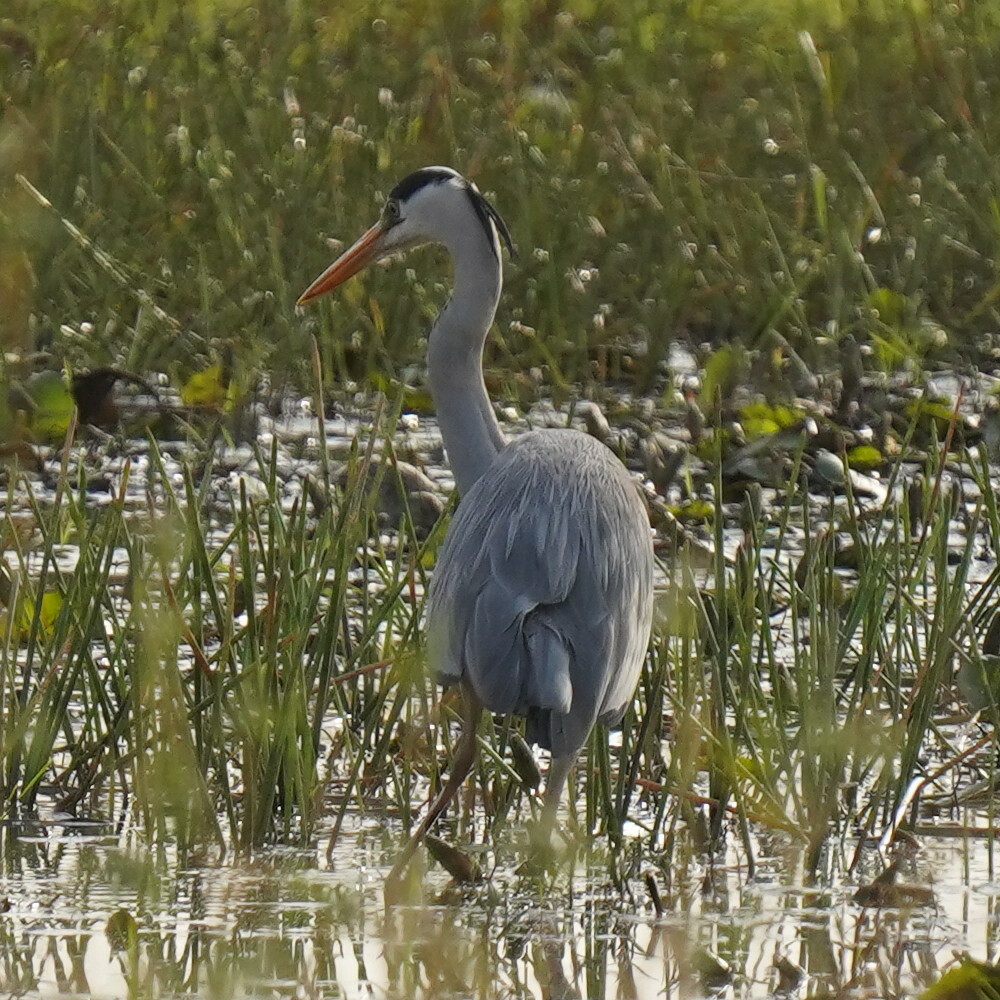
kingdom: Animalia
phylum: Chordata
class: Aves
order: Pelecaniformes
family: Ardeidae
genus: Ardea
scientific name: Ardea cinerea
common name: Grey heron
